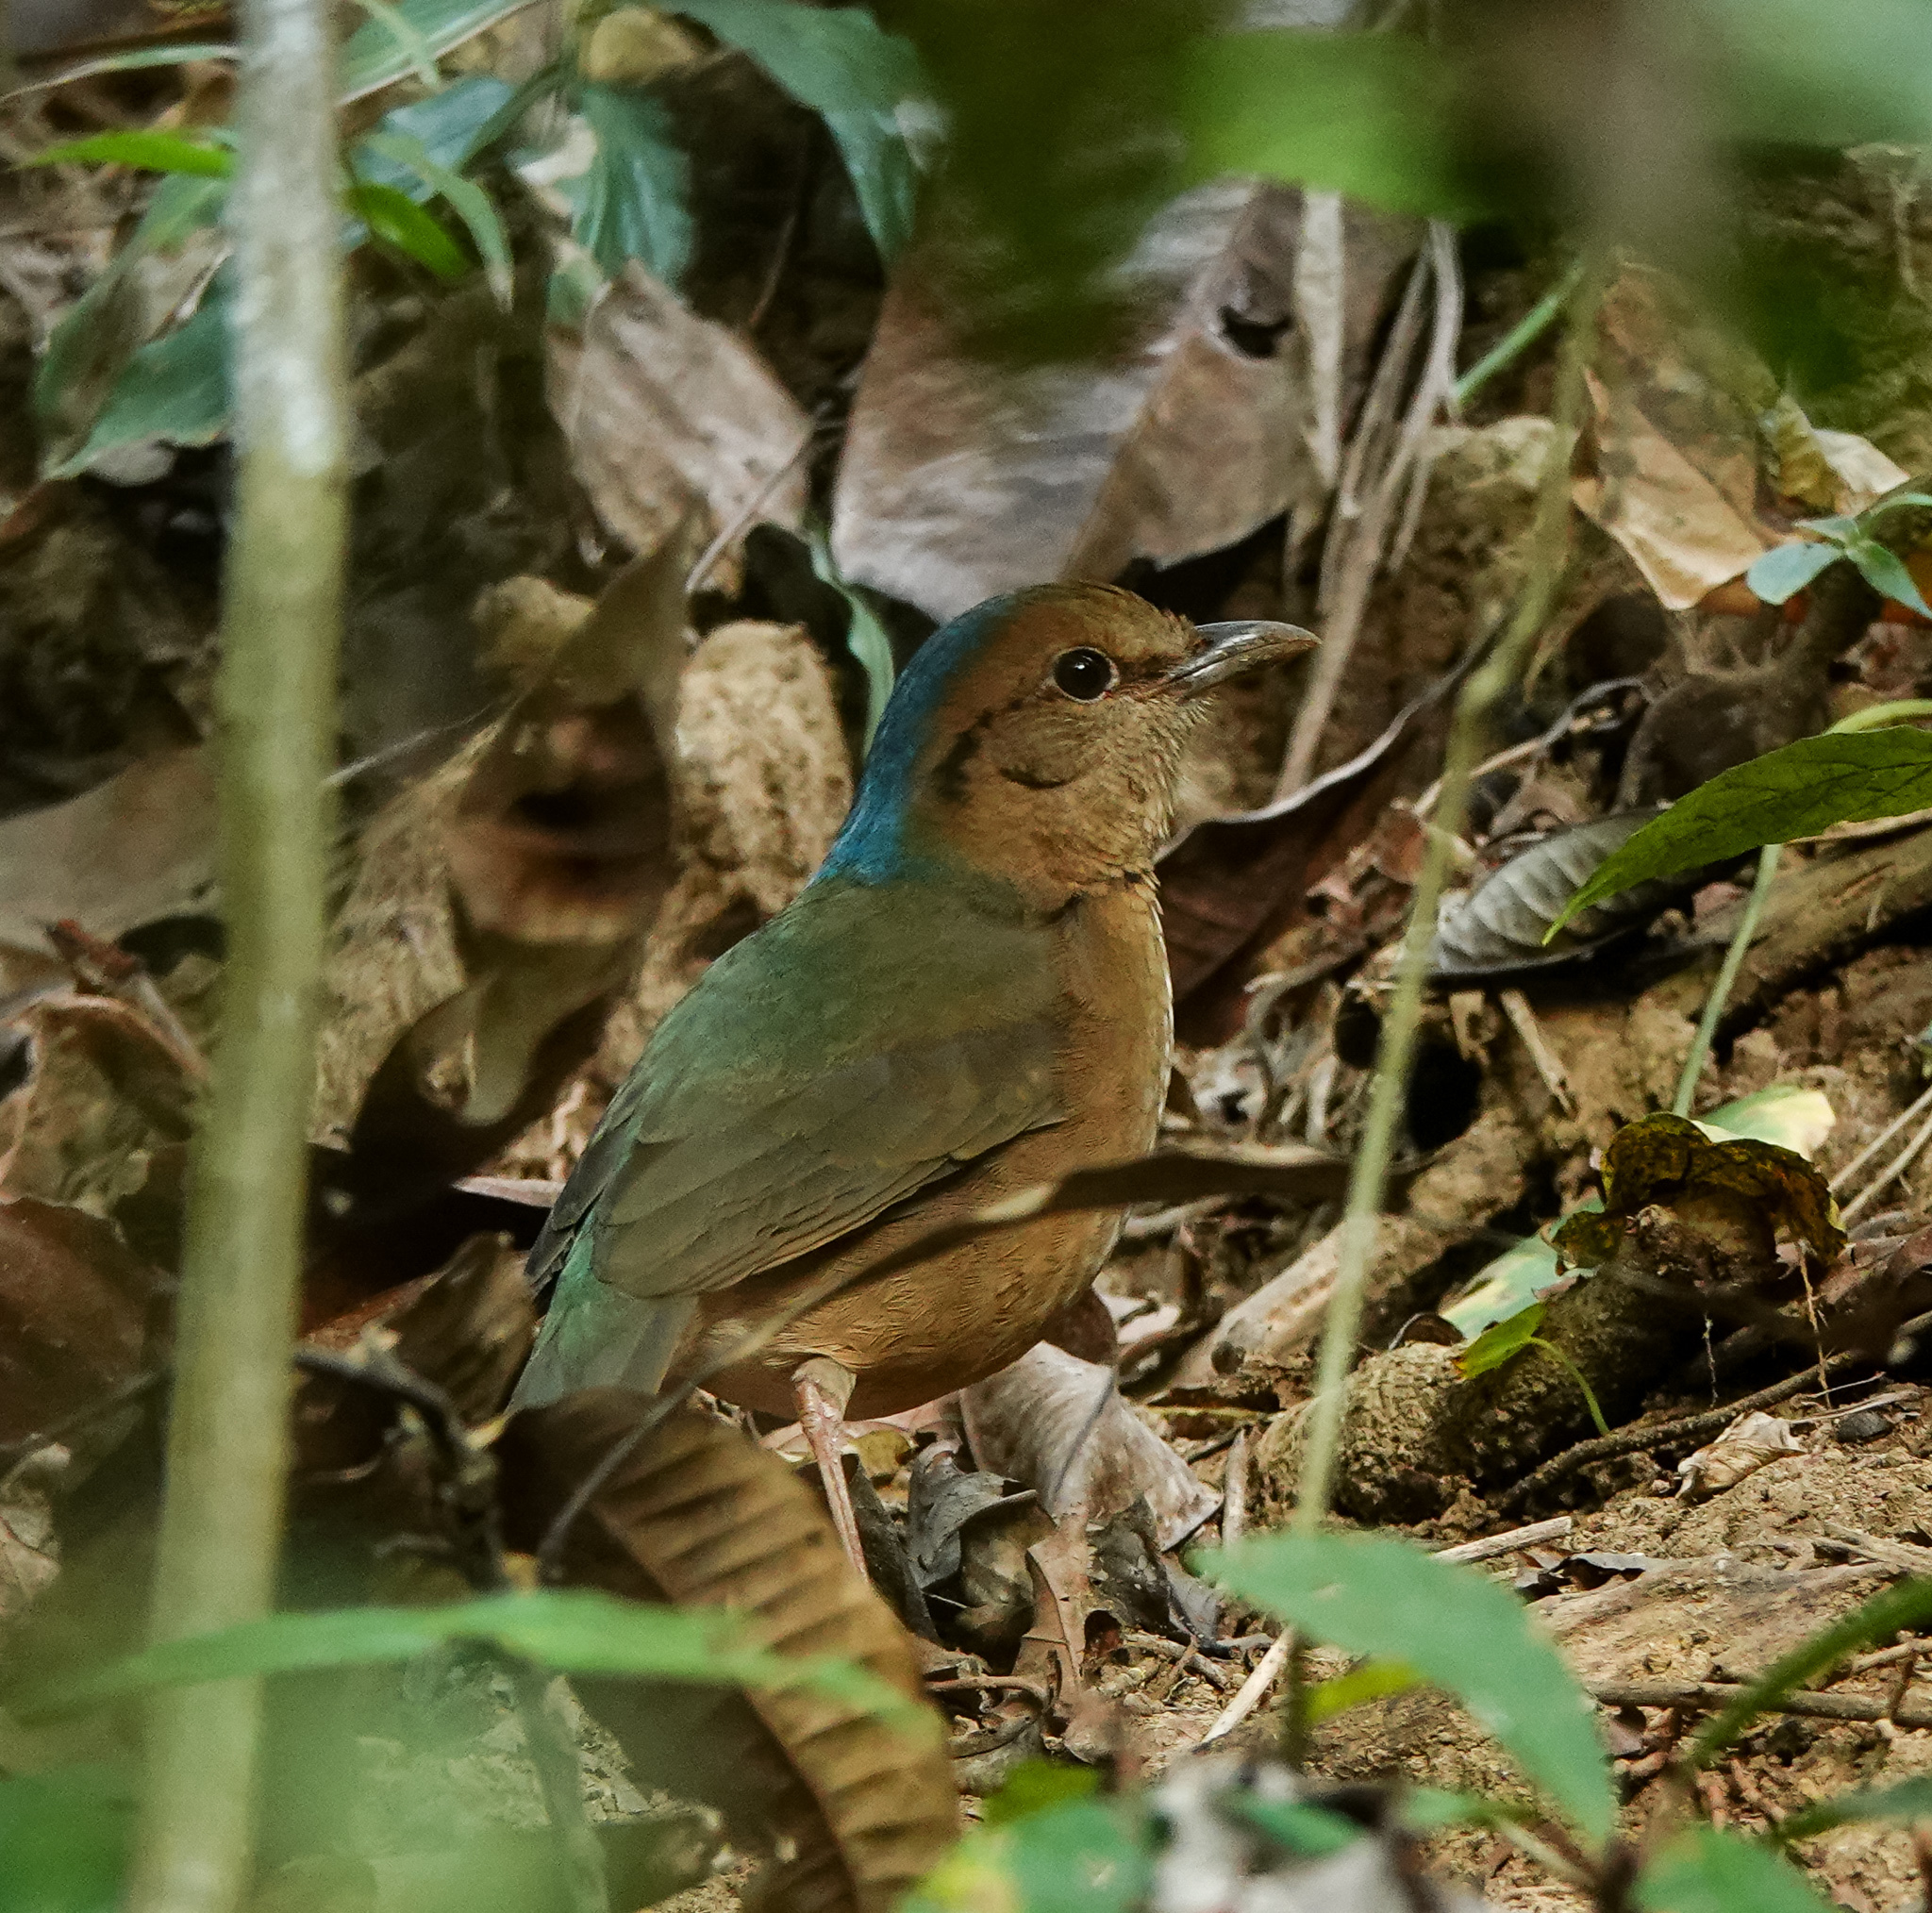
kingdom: Animalia
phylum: Chordata
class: Aves
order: Passeriformes
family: Pittidae
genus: Pitta
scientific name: Pitta nipalensis
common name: Blue-naped pitta
